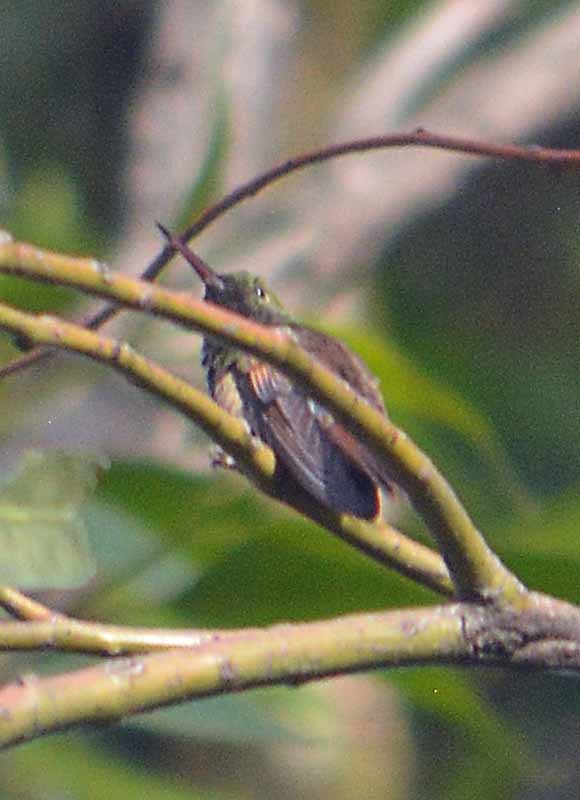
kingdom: Animalia
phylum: Chordata
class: Aves
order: Apodiformes
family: Trochilidae
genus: Saucerottia
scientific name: Saucerottia beryllina
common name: Berylline hummingbird
